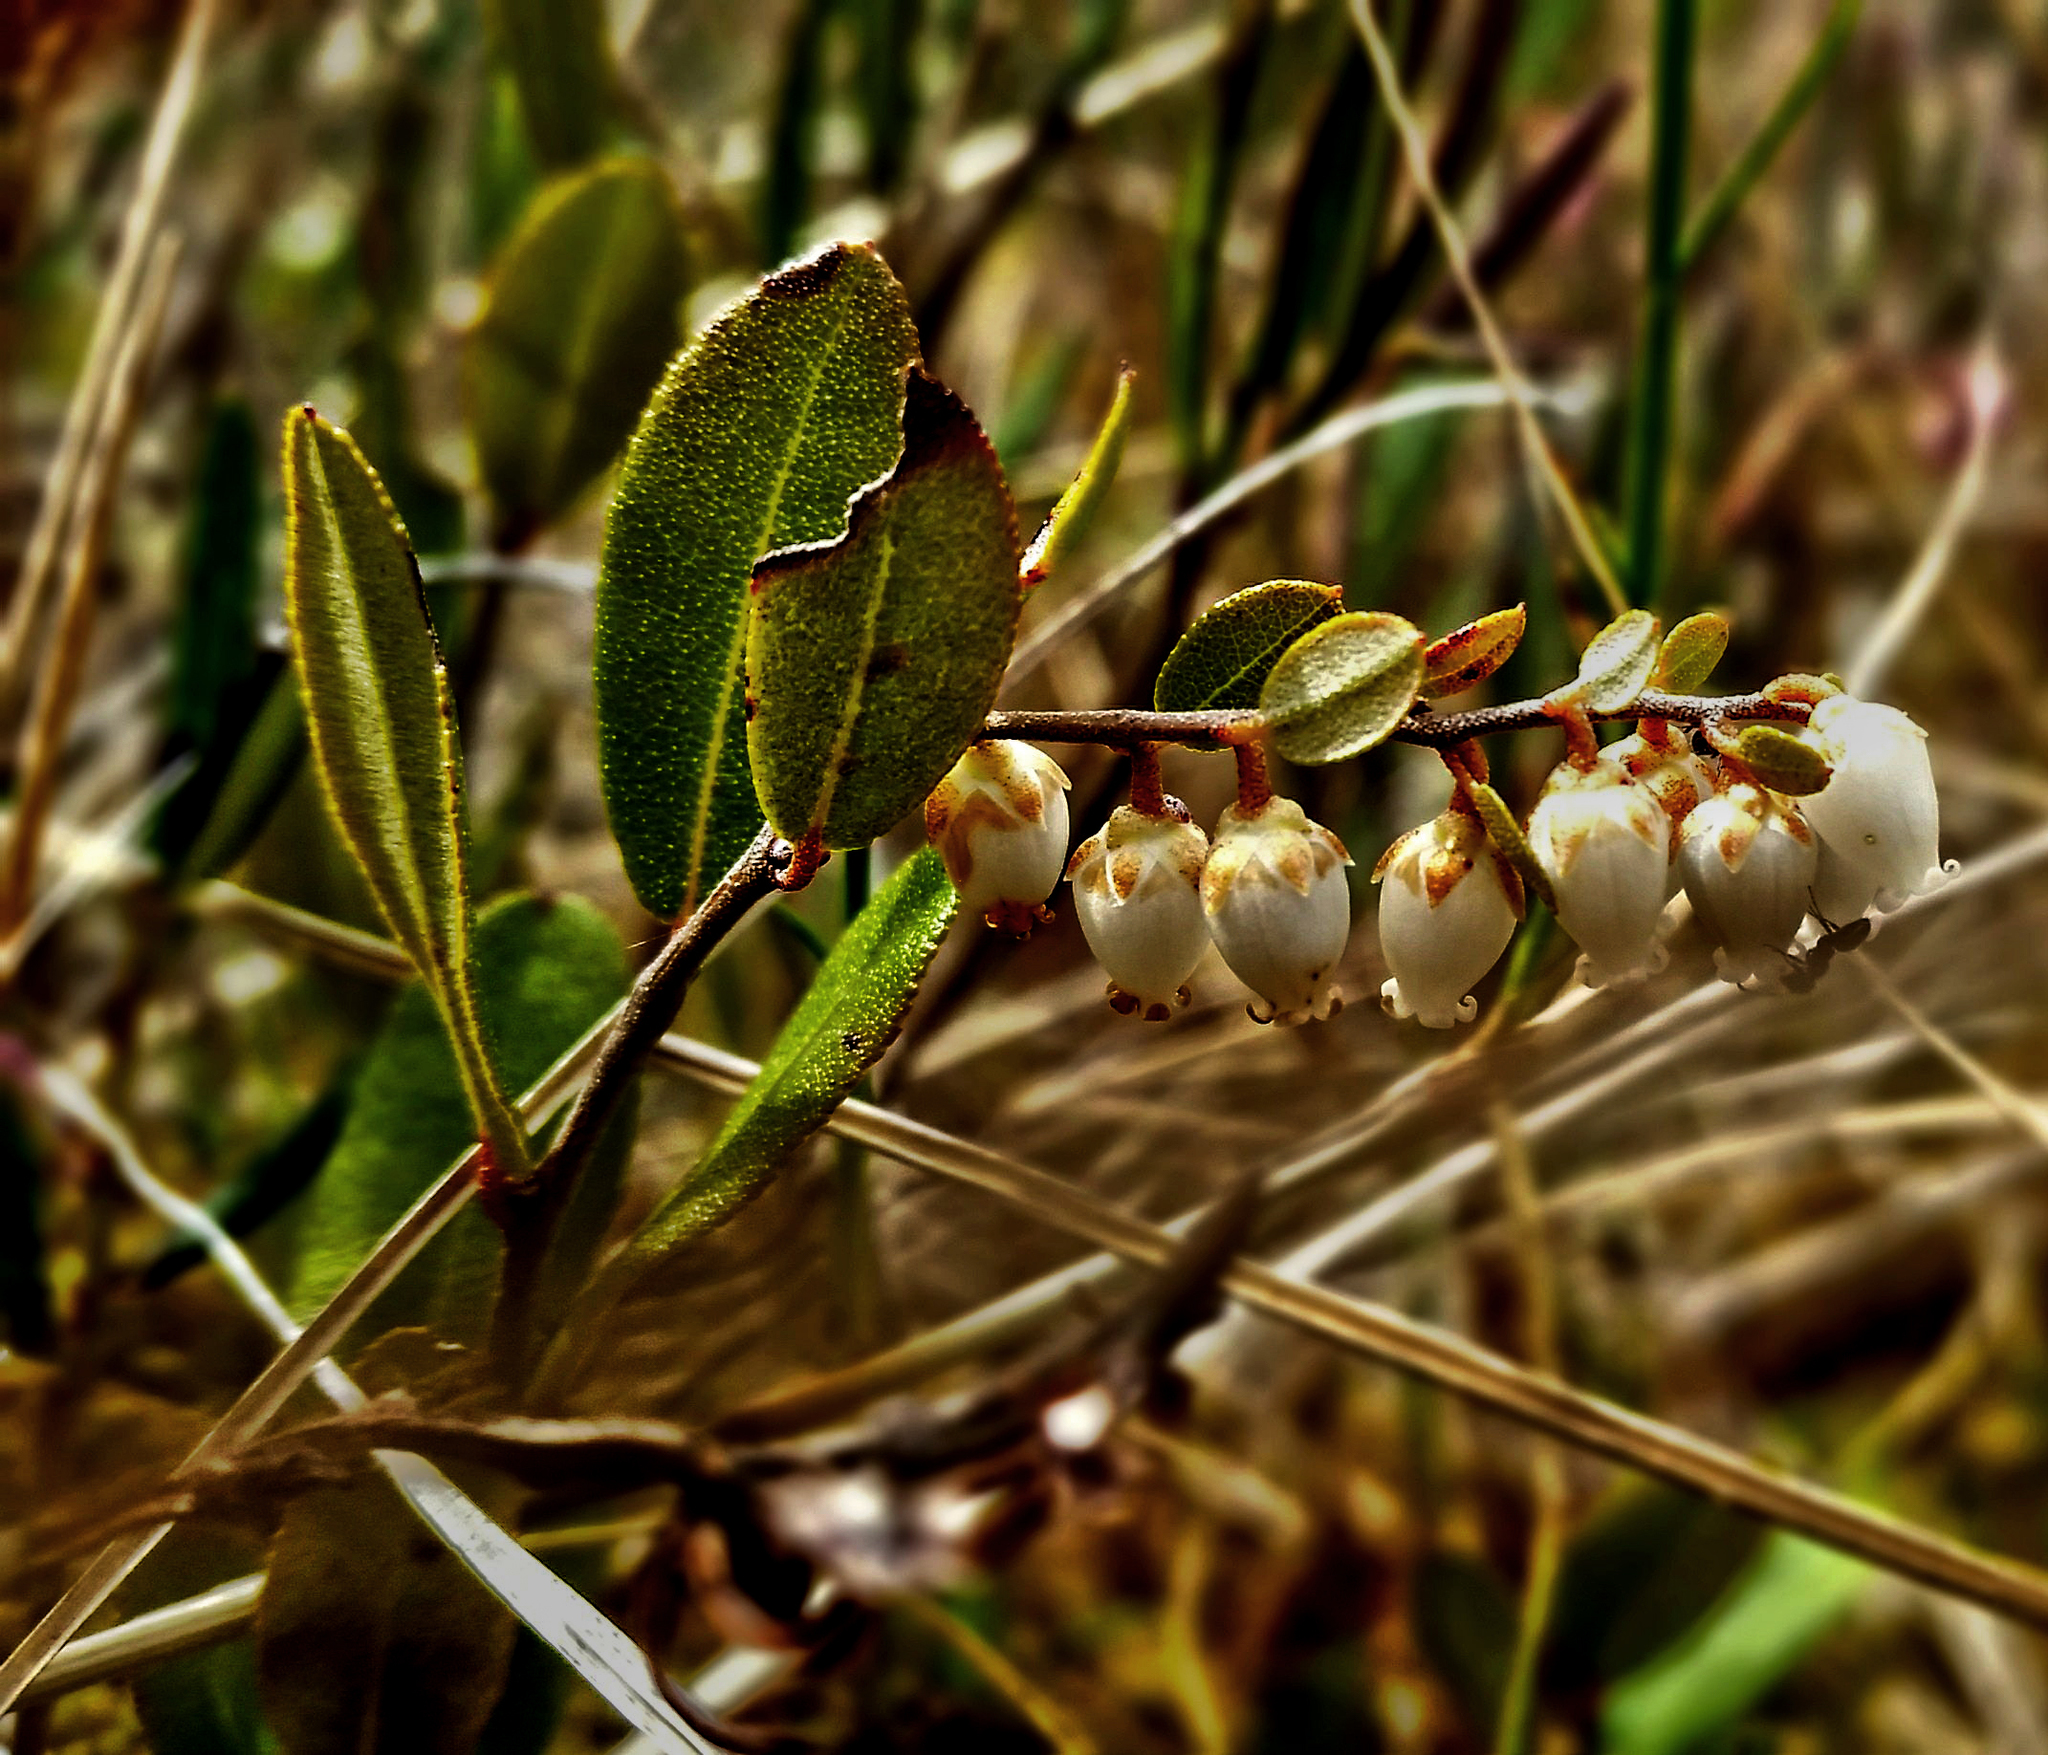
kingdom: Plantae
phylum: Tracheophyta
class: Magnoliopsida
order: Ericales
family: Ericaceae
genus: Chamaedaphne
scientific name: Chamaedaphne calyculata
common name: Leatherleaf
